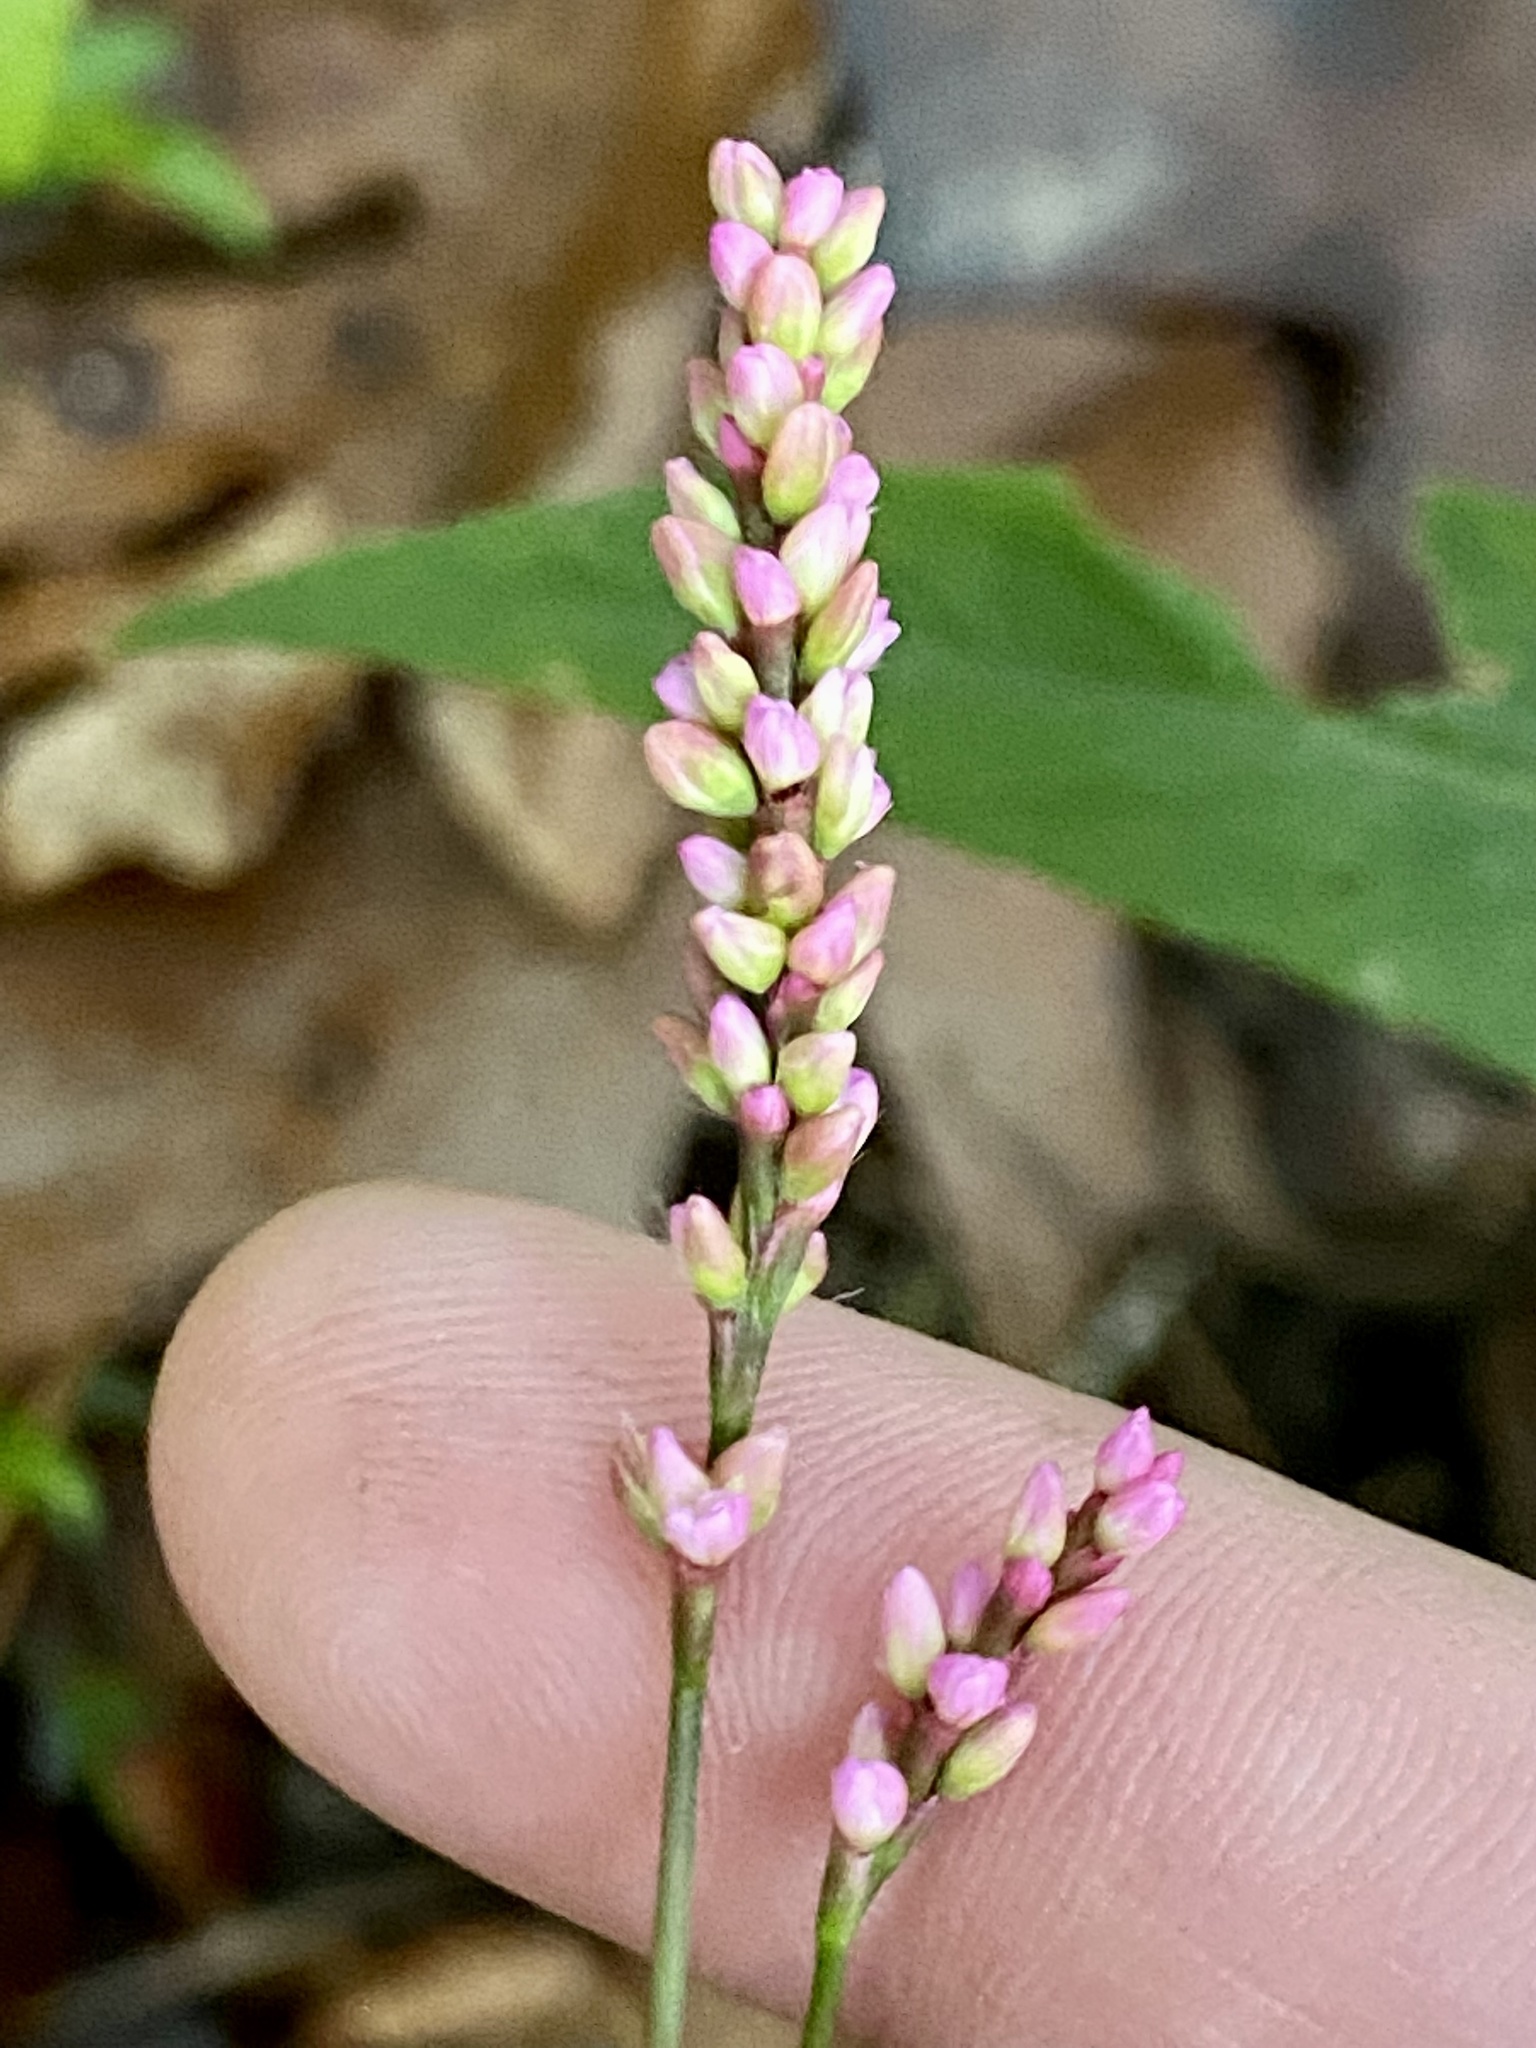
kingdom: Plantae
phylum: Tracheophyta
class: Magnoliopsida
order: Caryophyllales
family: Polygonaceae
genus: Persicaria
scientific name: Persicaria longiseta
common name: Bristly lady's-thumb
